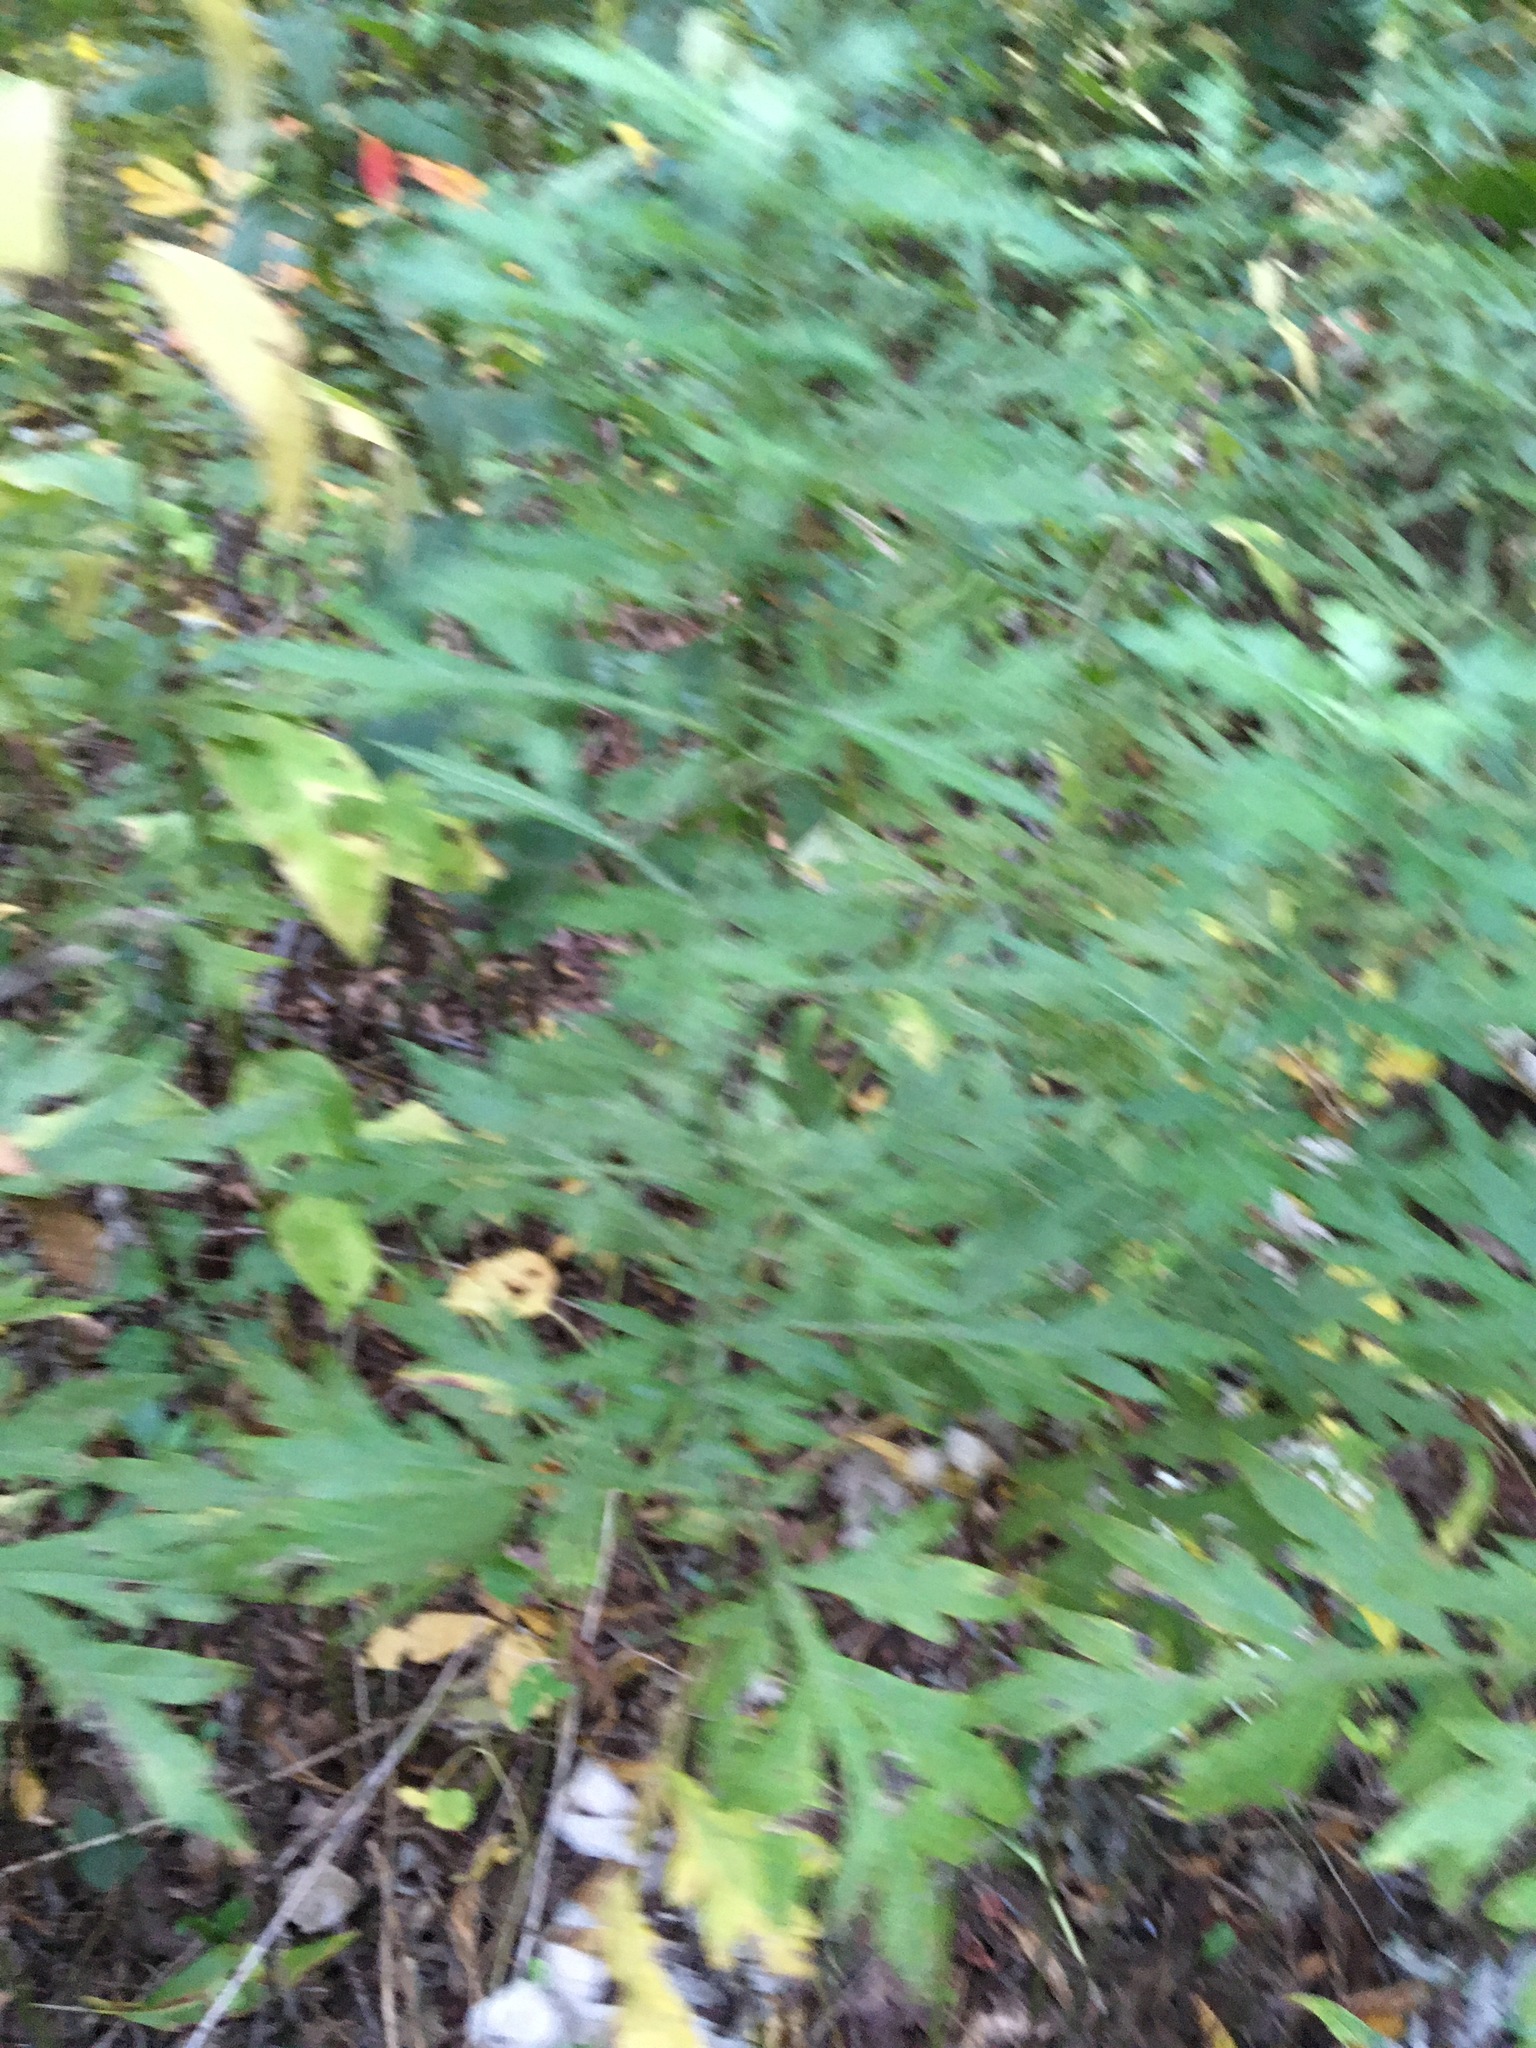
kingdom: Plantae
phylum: Tracheophyta
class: Magnoliopsida
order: Asterales
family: Asteraceae
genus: Artemisia
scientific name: Artemisia vulgaris
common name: Mugwort
